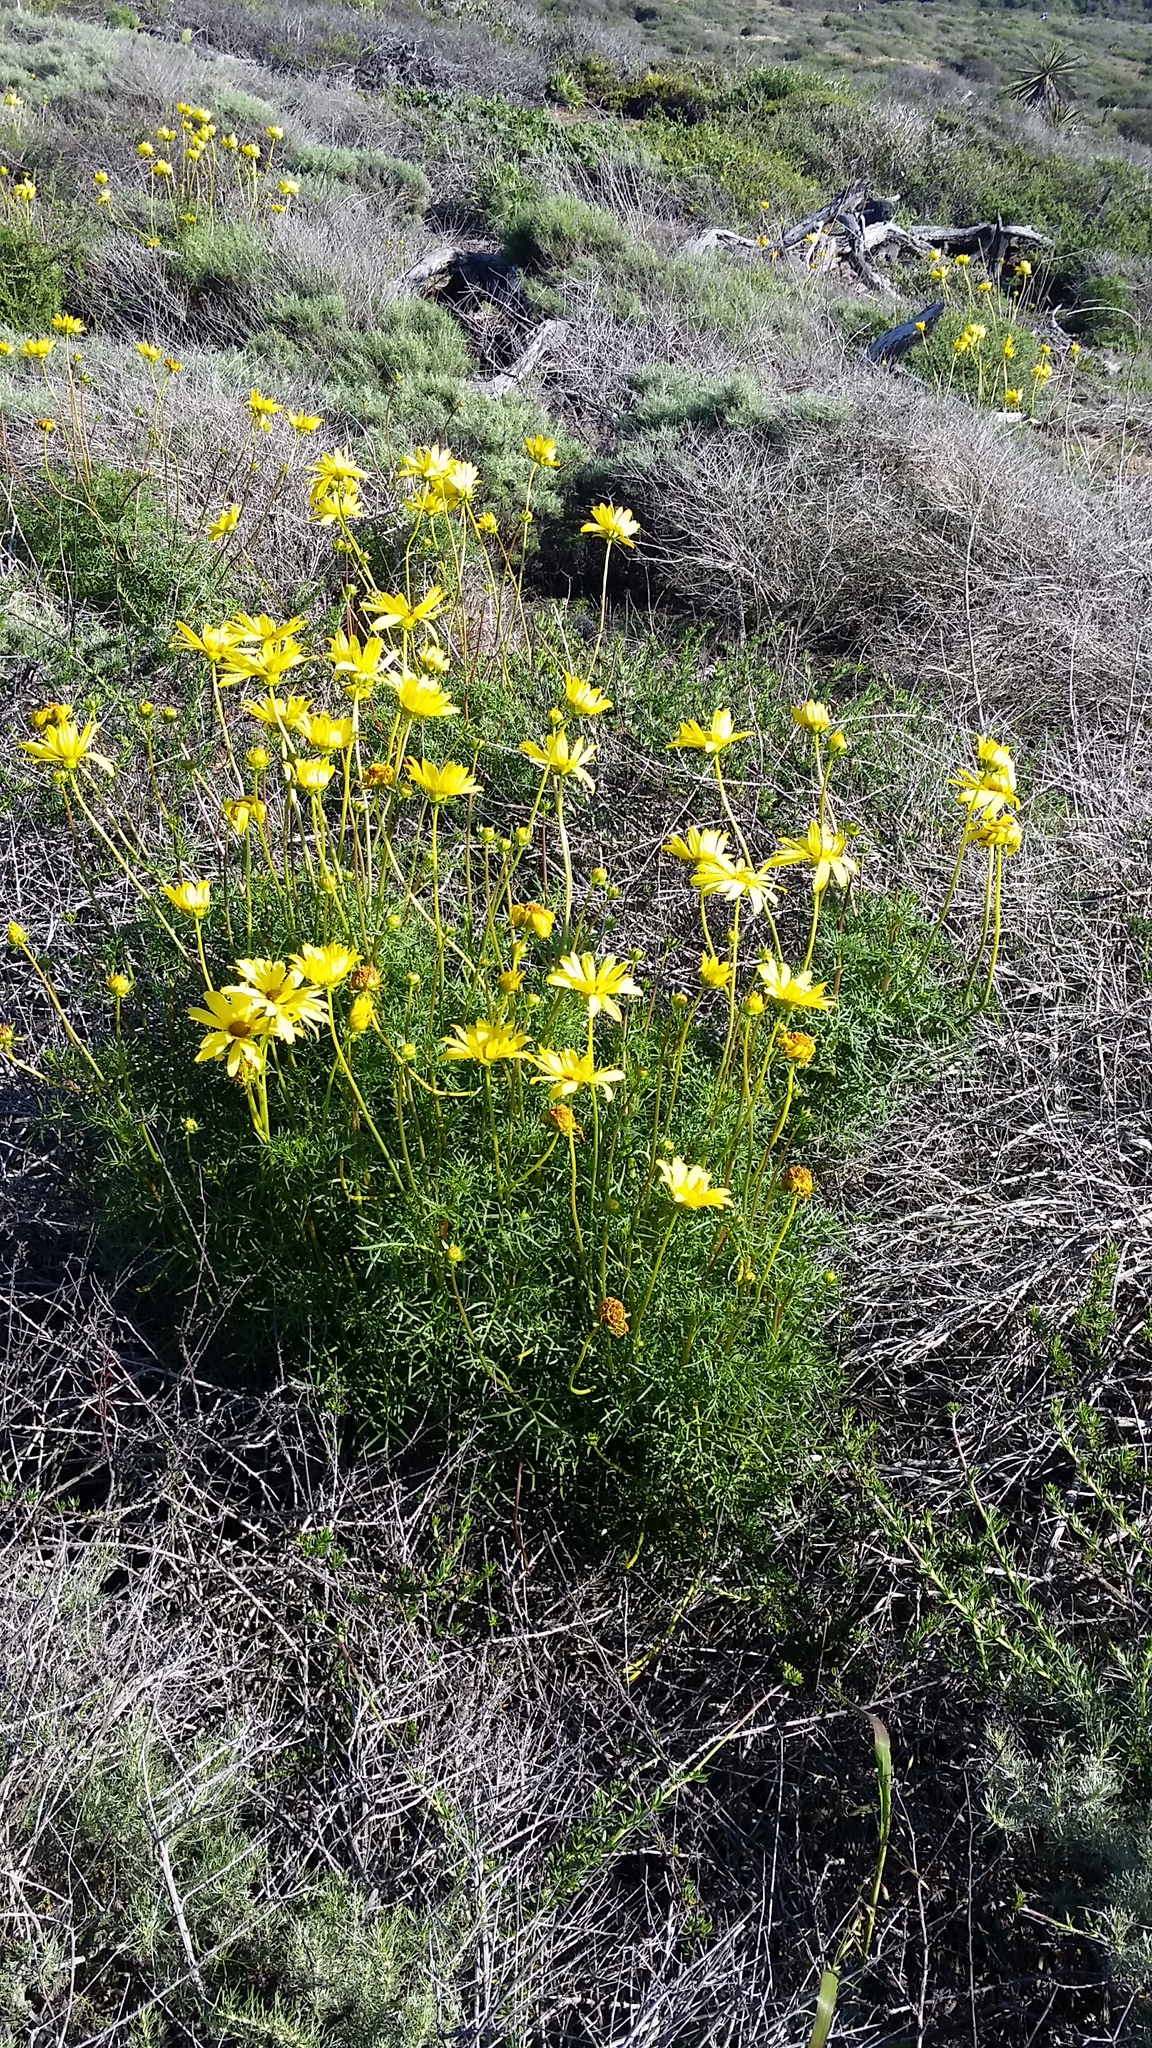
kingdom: Plantae
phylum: Tracheophyta
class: Magnoliopsida
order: Asterales
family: Asteraceae
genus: Coreopsis
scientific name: Coreopsis maritima
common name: Sea-dahlia
